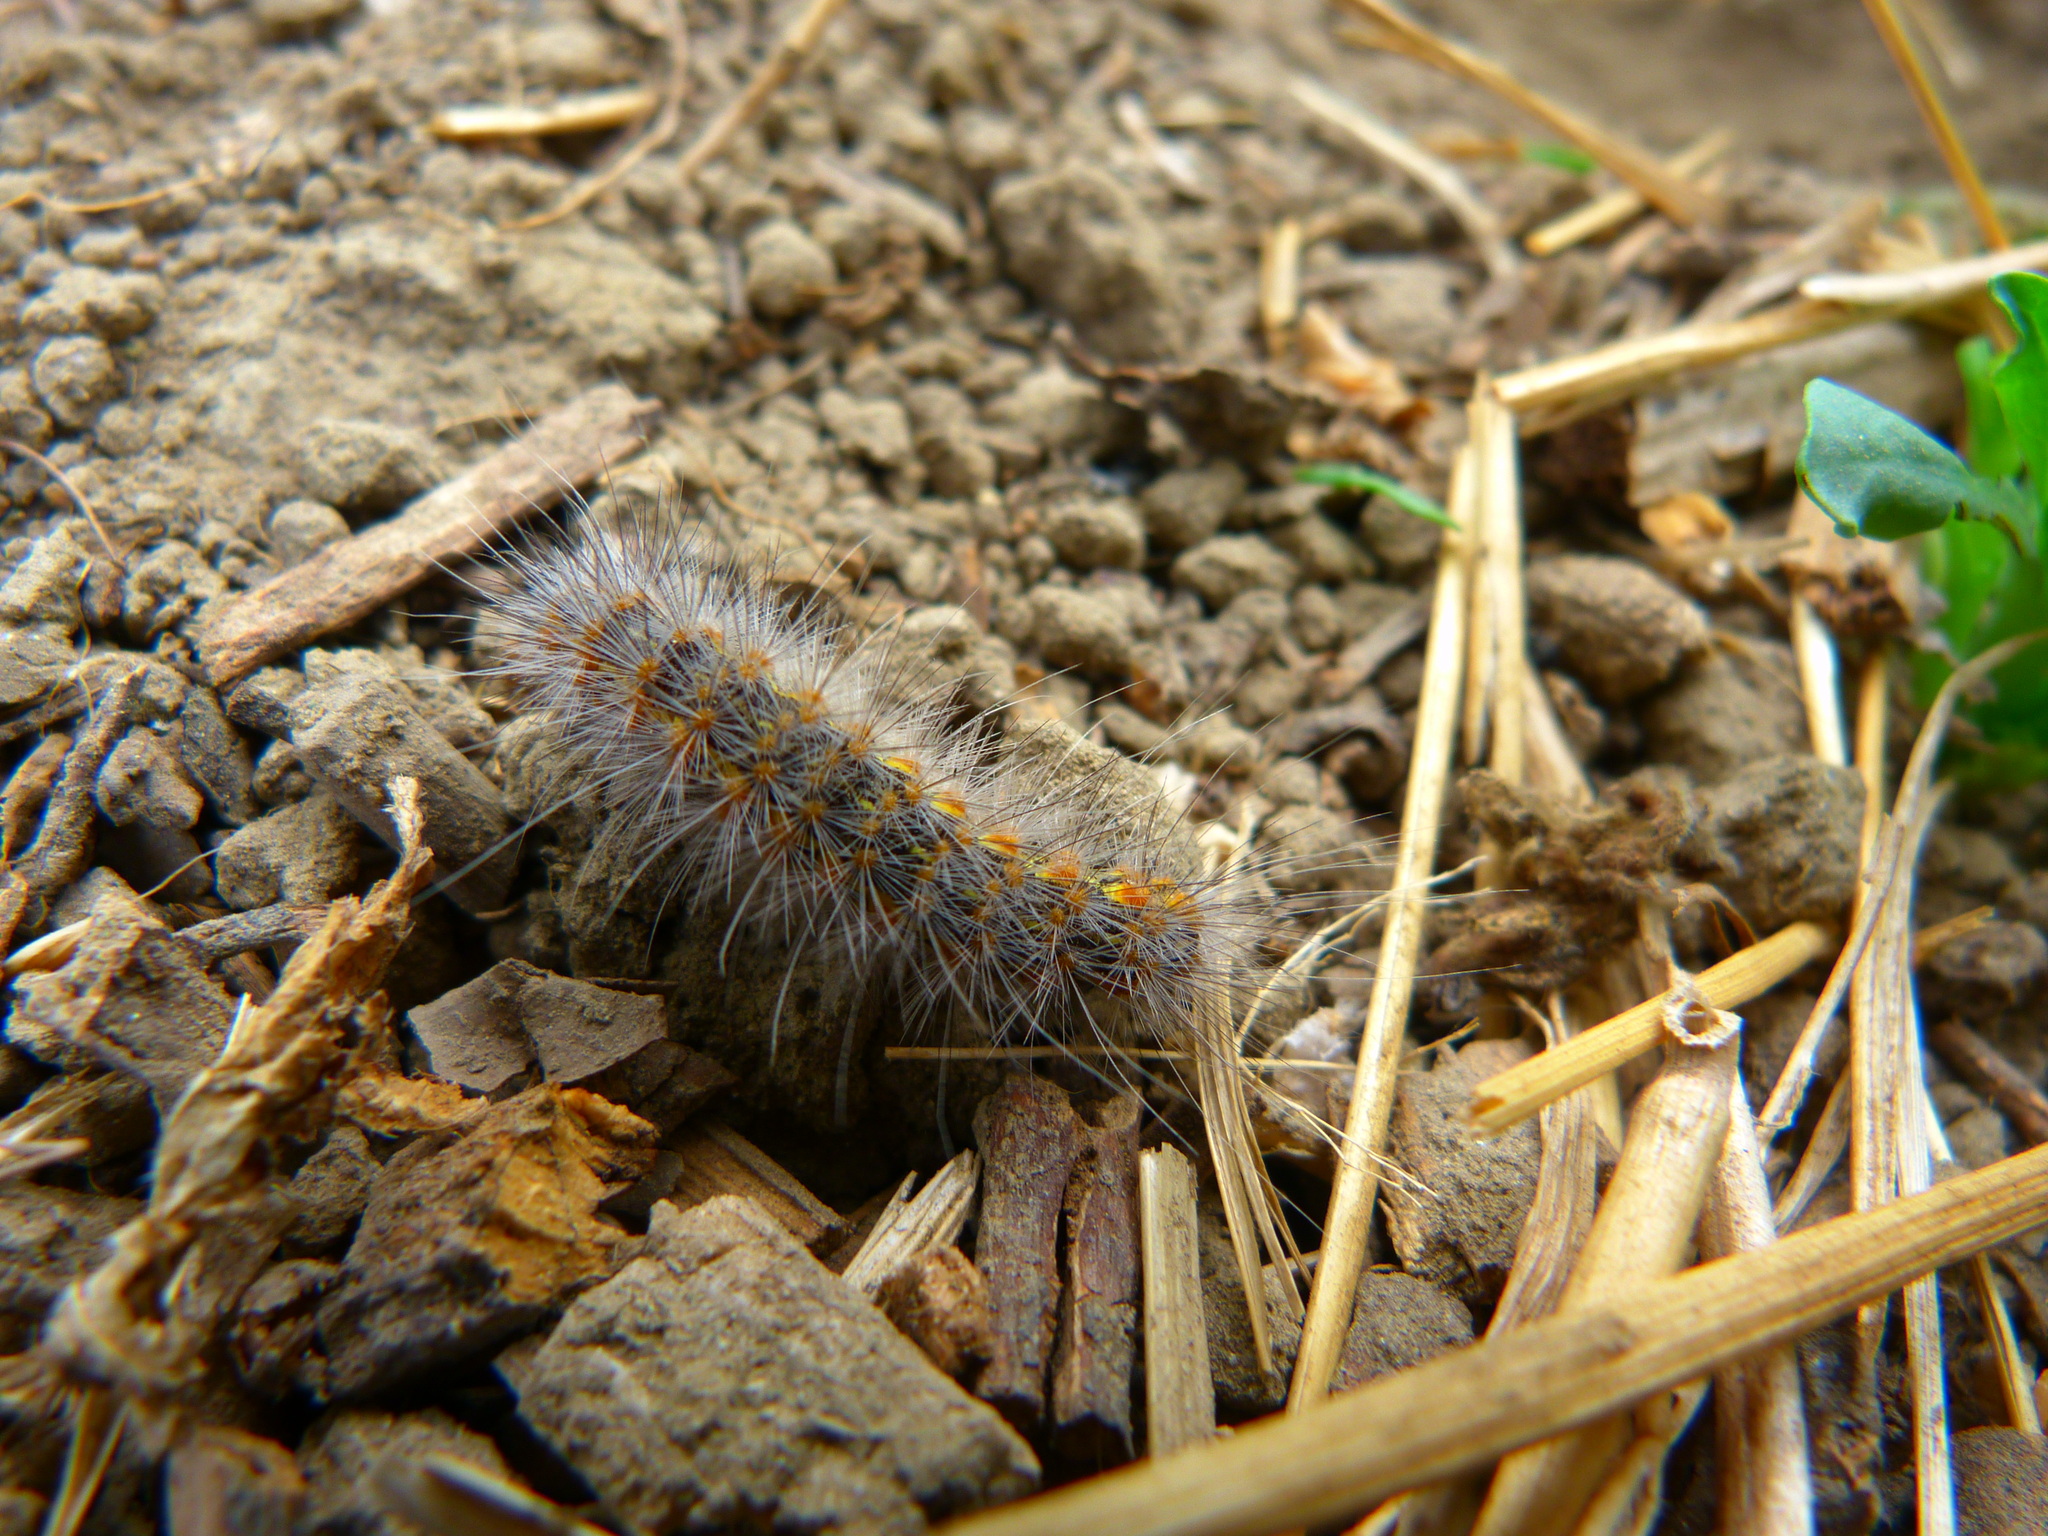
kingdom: Animalia
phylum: Arthropoda
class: Insecta
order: Lepidoptera
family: Erebidae
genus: Estigmene
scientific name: Estigmene acrea
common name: Salt marsh moth
